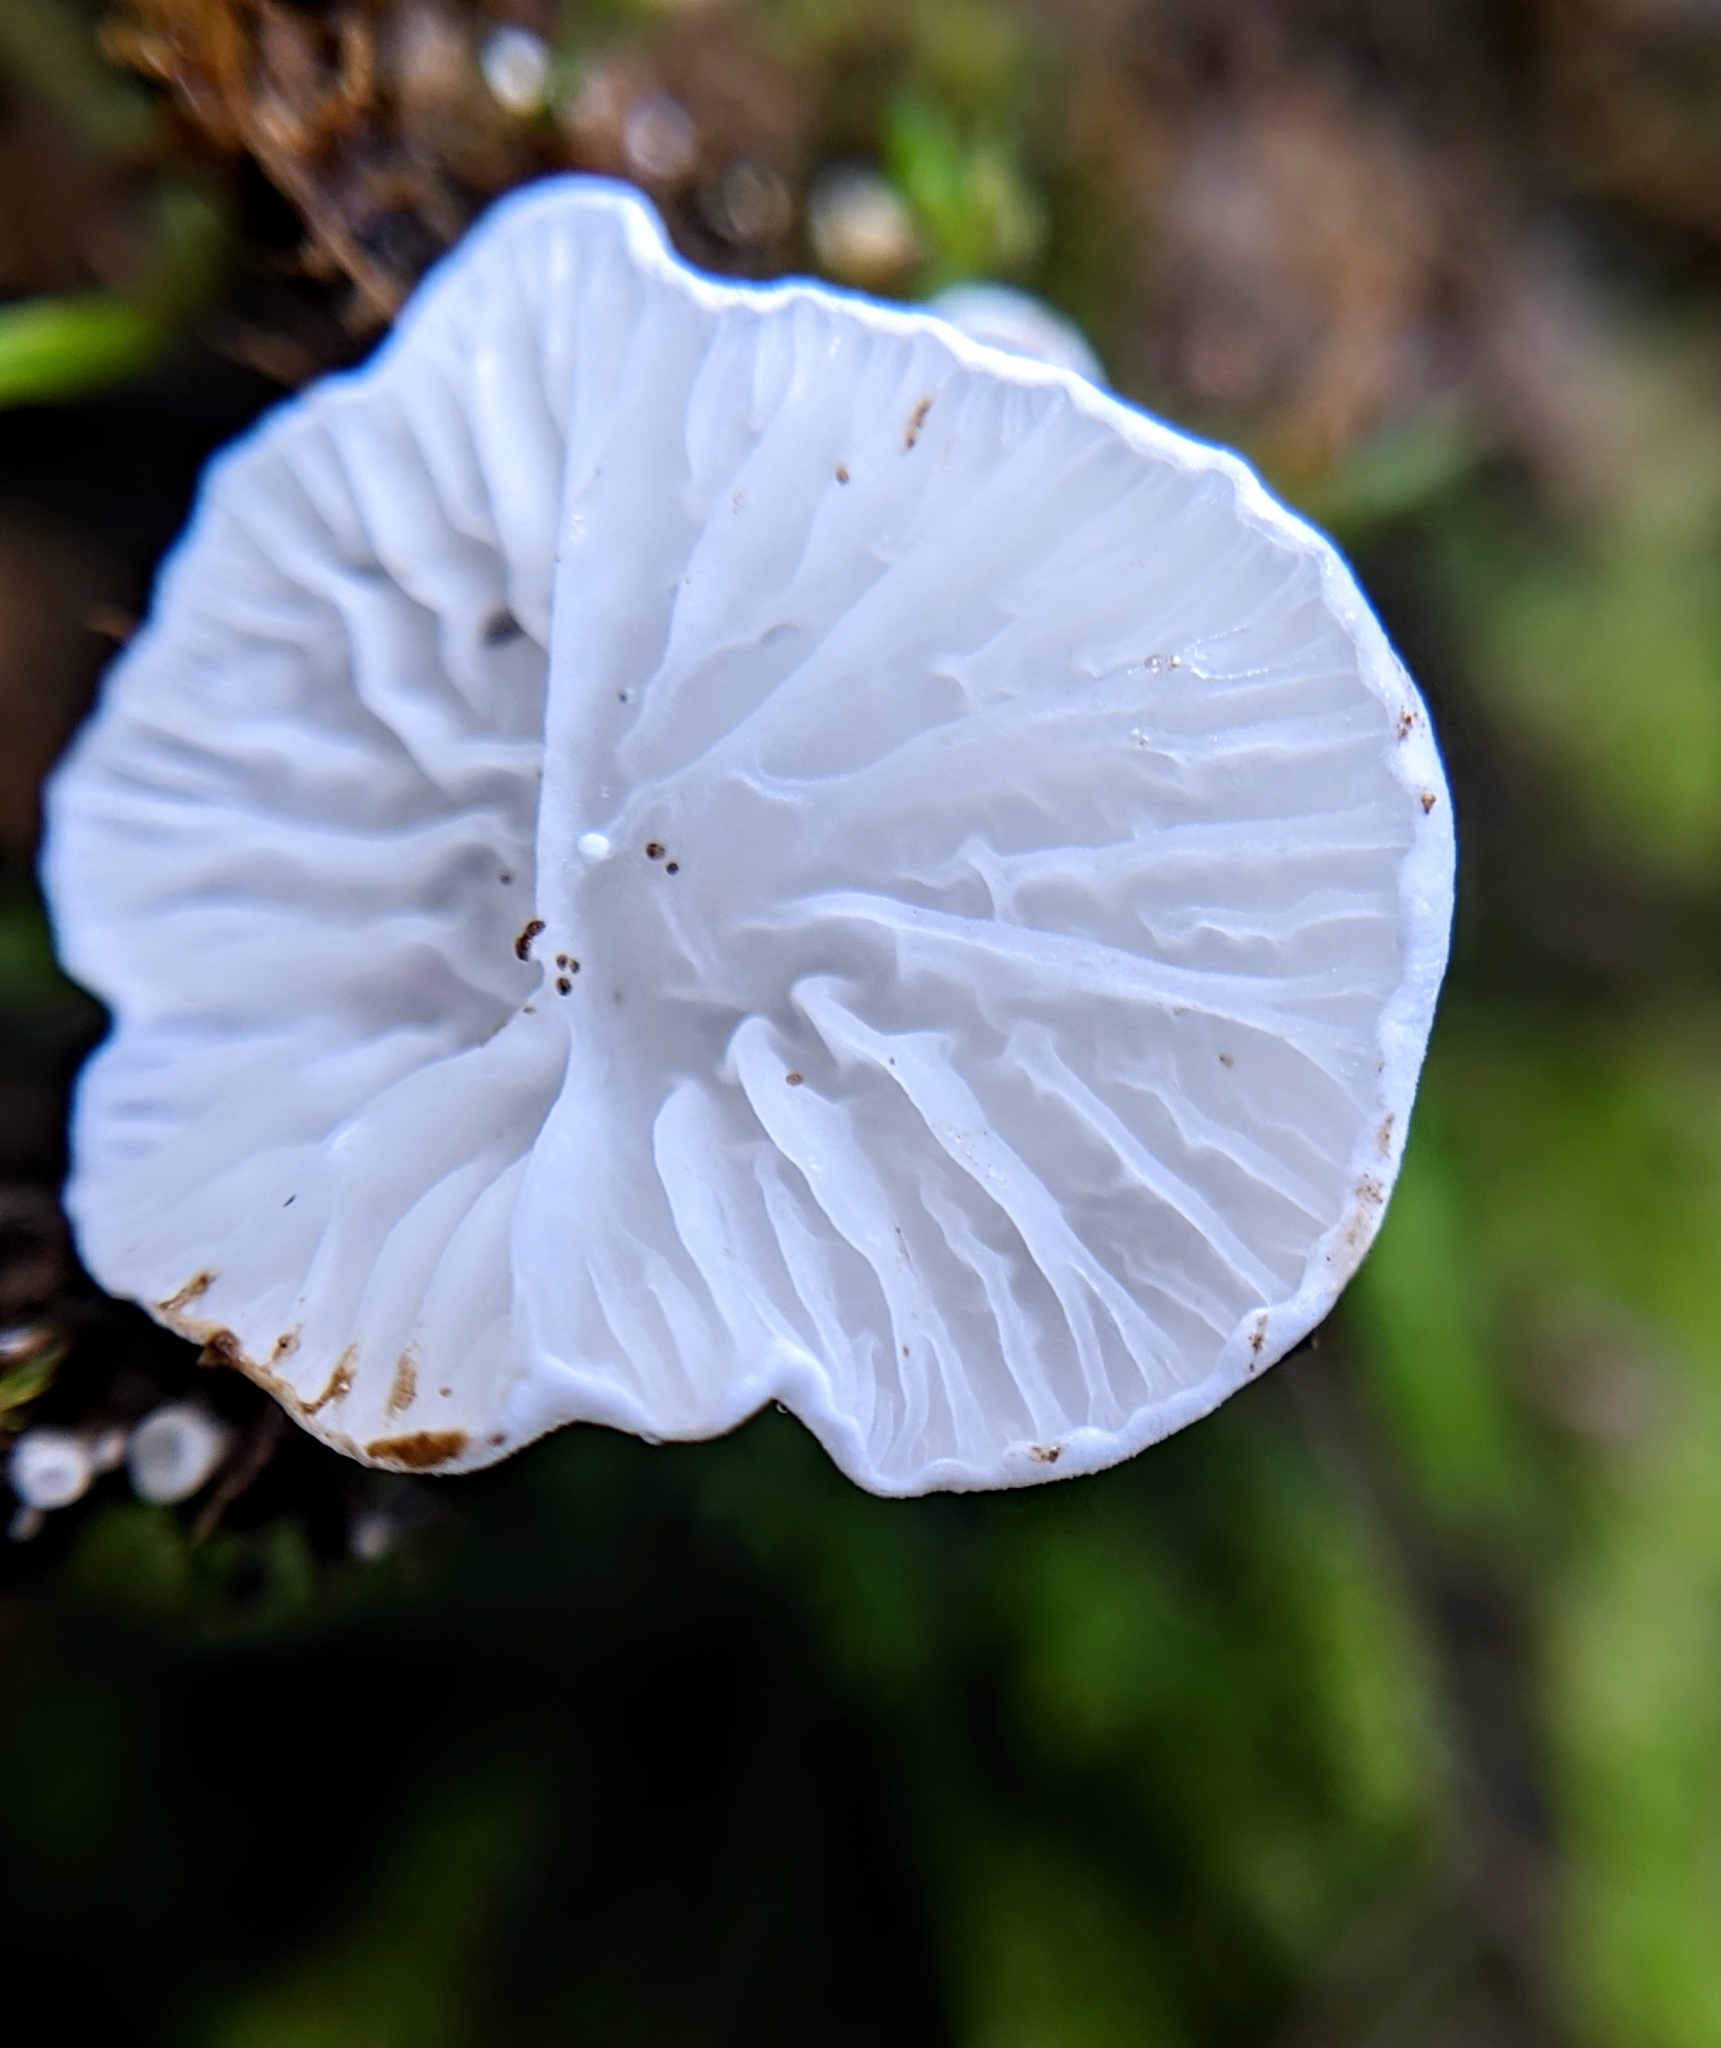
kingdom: Fungi
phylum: Basidiomycota
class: Agaricomycetes
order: Agaricales
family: Tricholomataceae
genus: Rimbachia
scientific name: Rimbachia bryophila
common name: Veined mossear
